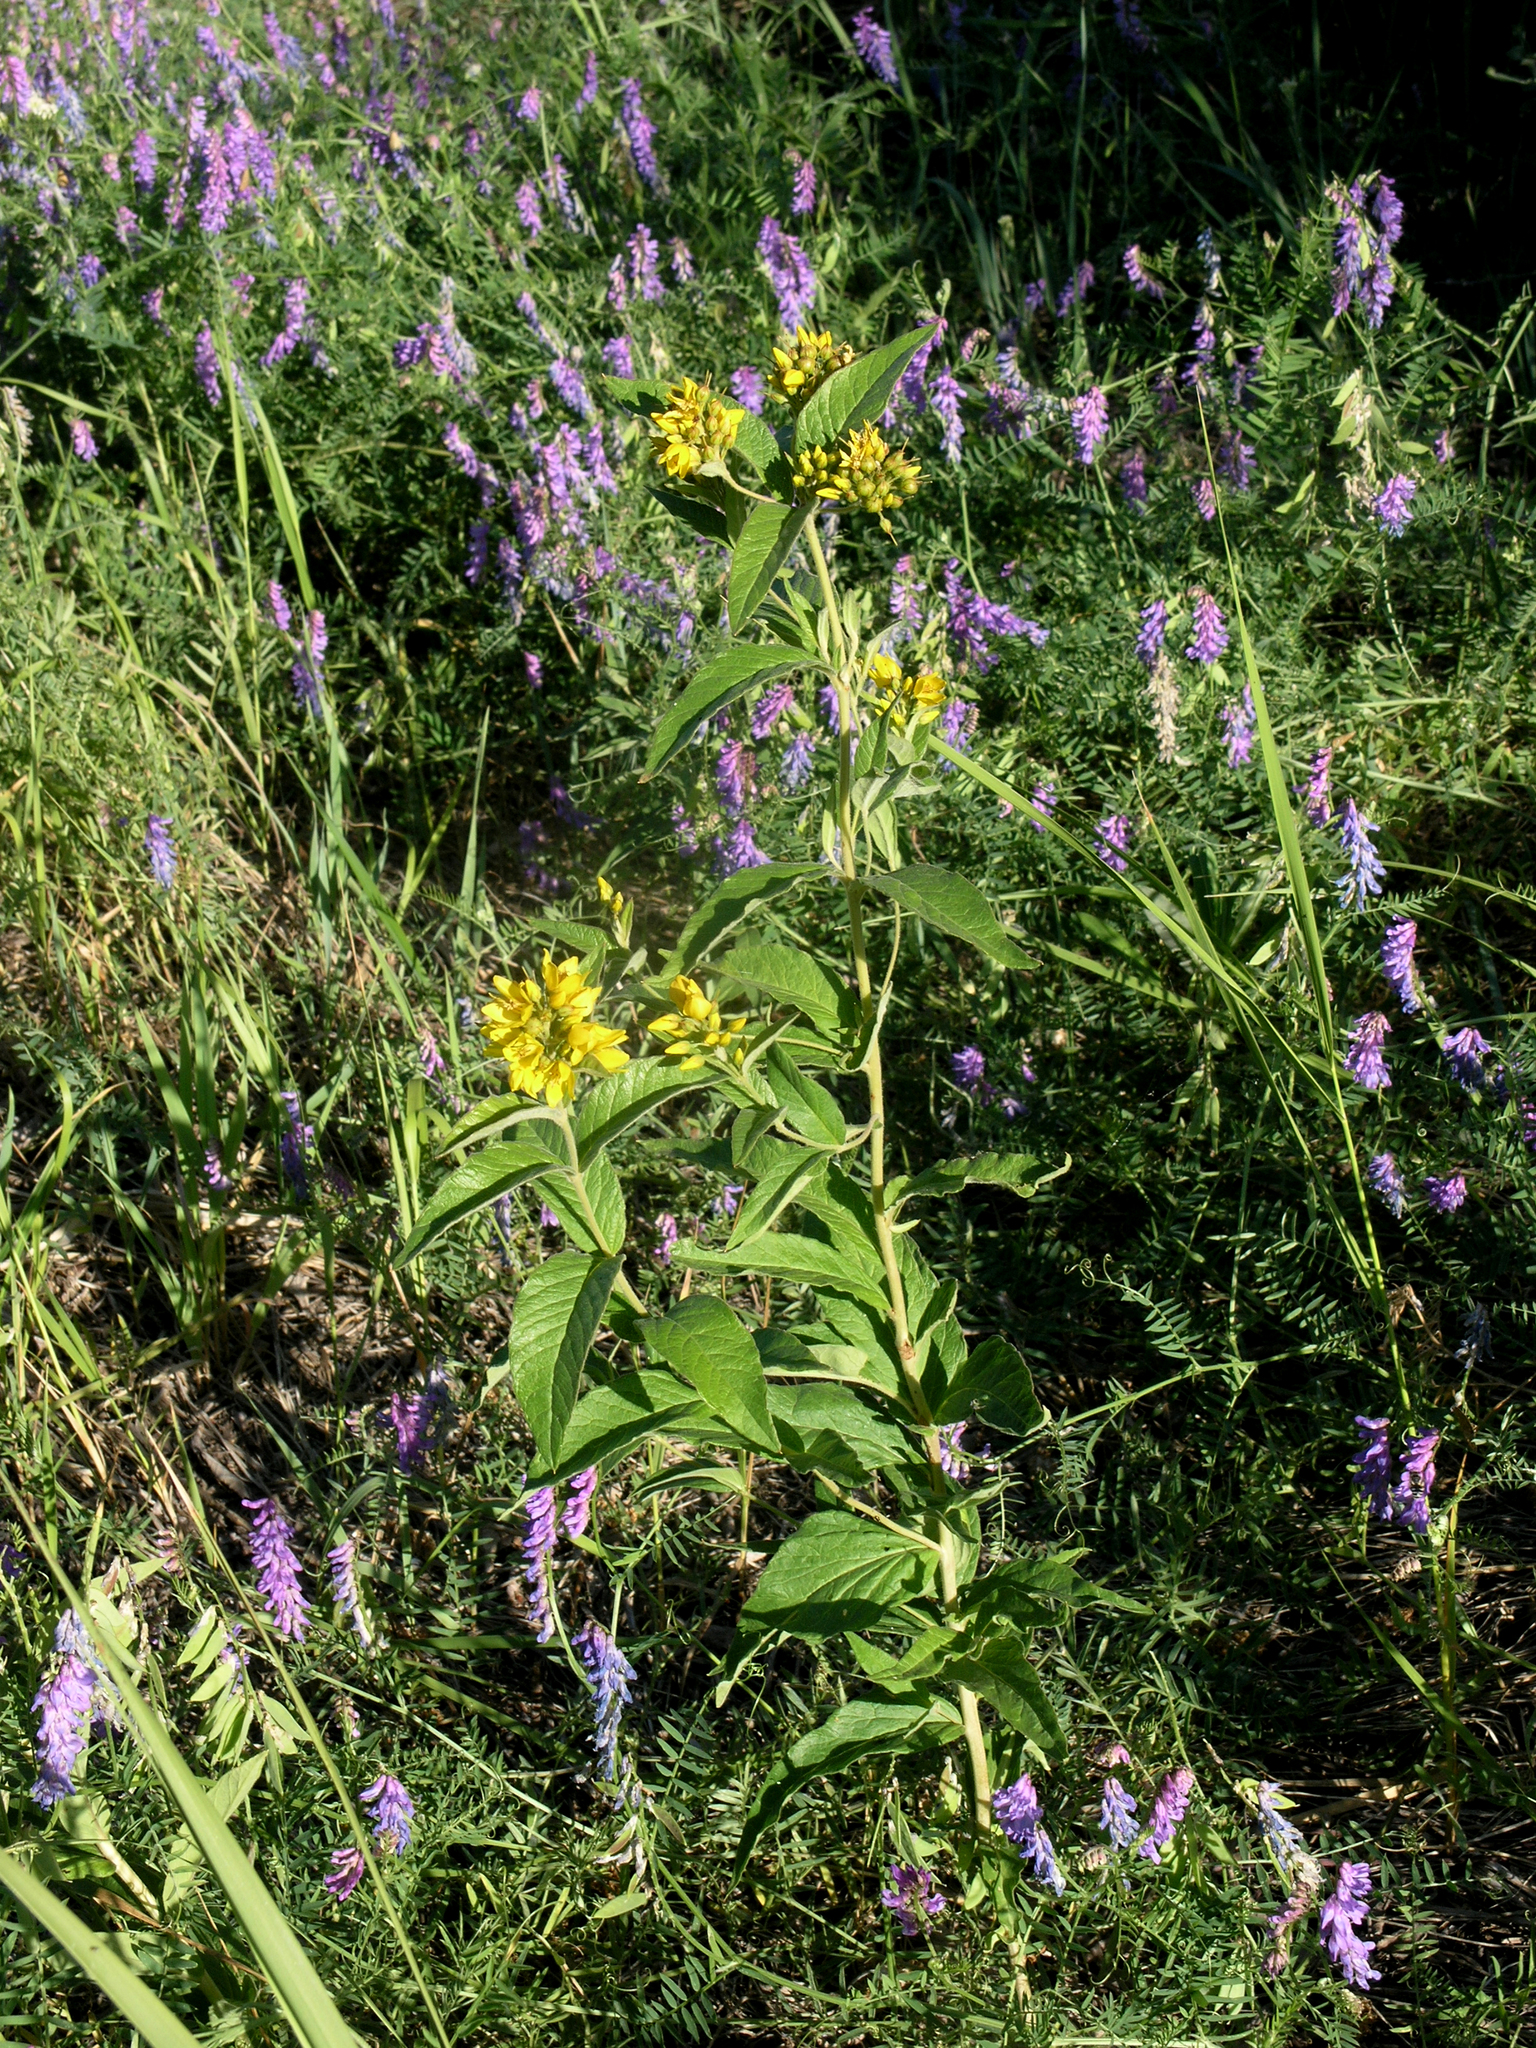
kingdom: Plantae
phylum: Tracheophyta
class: Magnoliopsida
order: Ericales
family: Primulaceae
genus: Lysimachia
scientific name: Lysimachia vulgaris
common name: Yellow loosestrife
